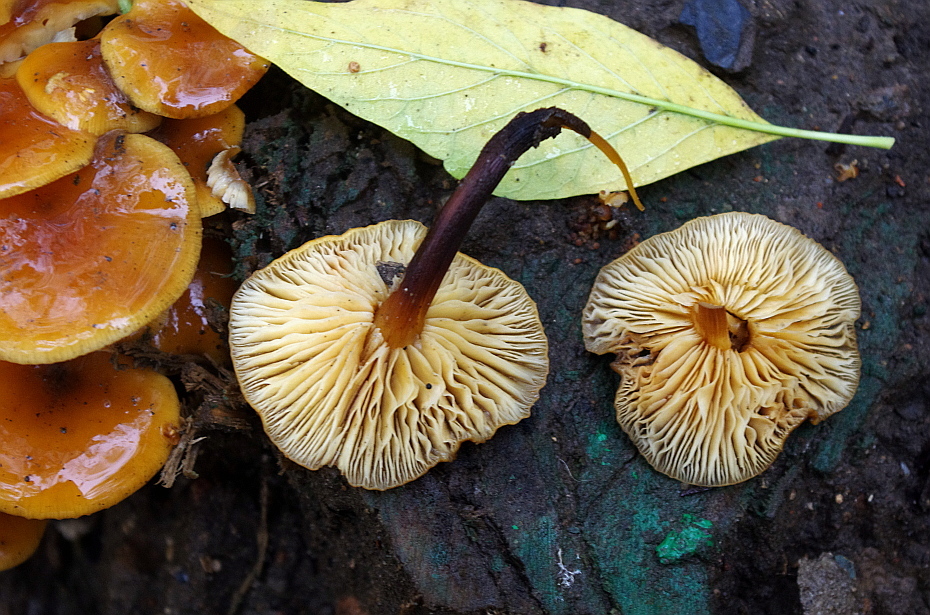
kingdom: Fungi
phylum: Basidiomycota
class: Agaricomycetes
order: Agaricales
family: Physalacriaceae
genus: Flammulina
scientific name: Flammulina
